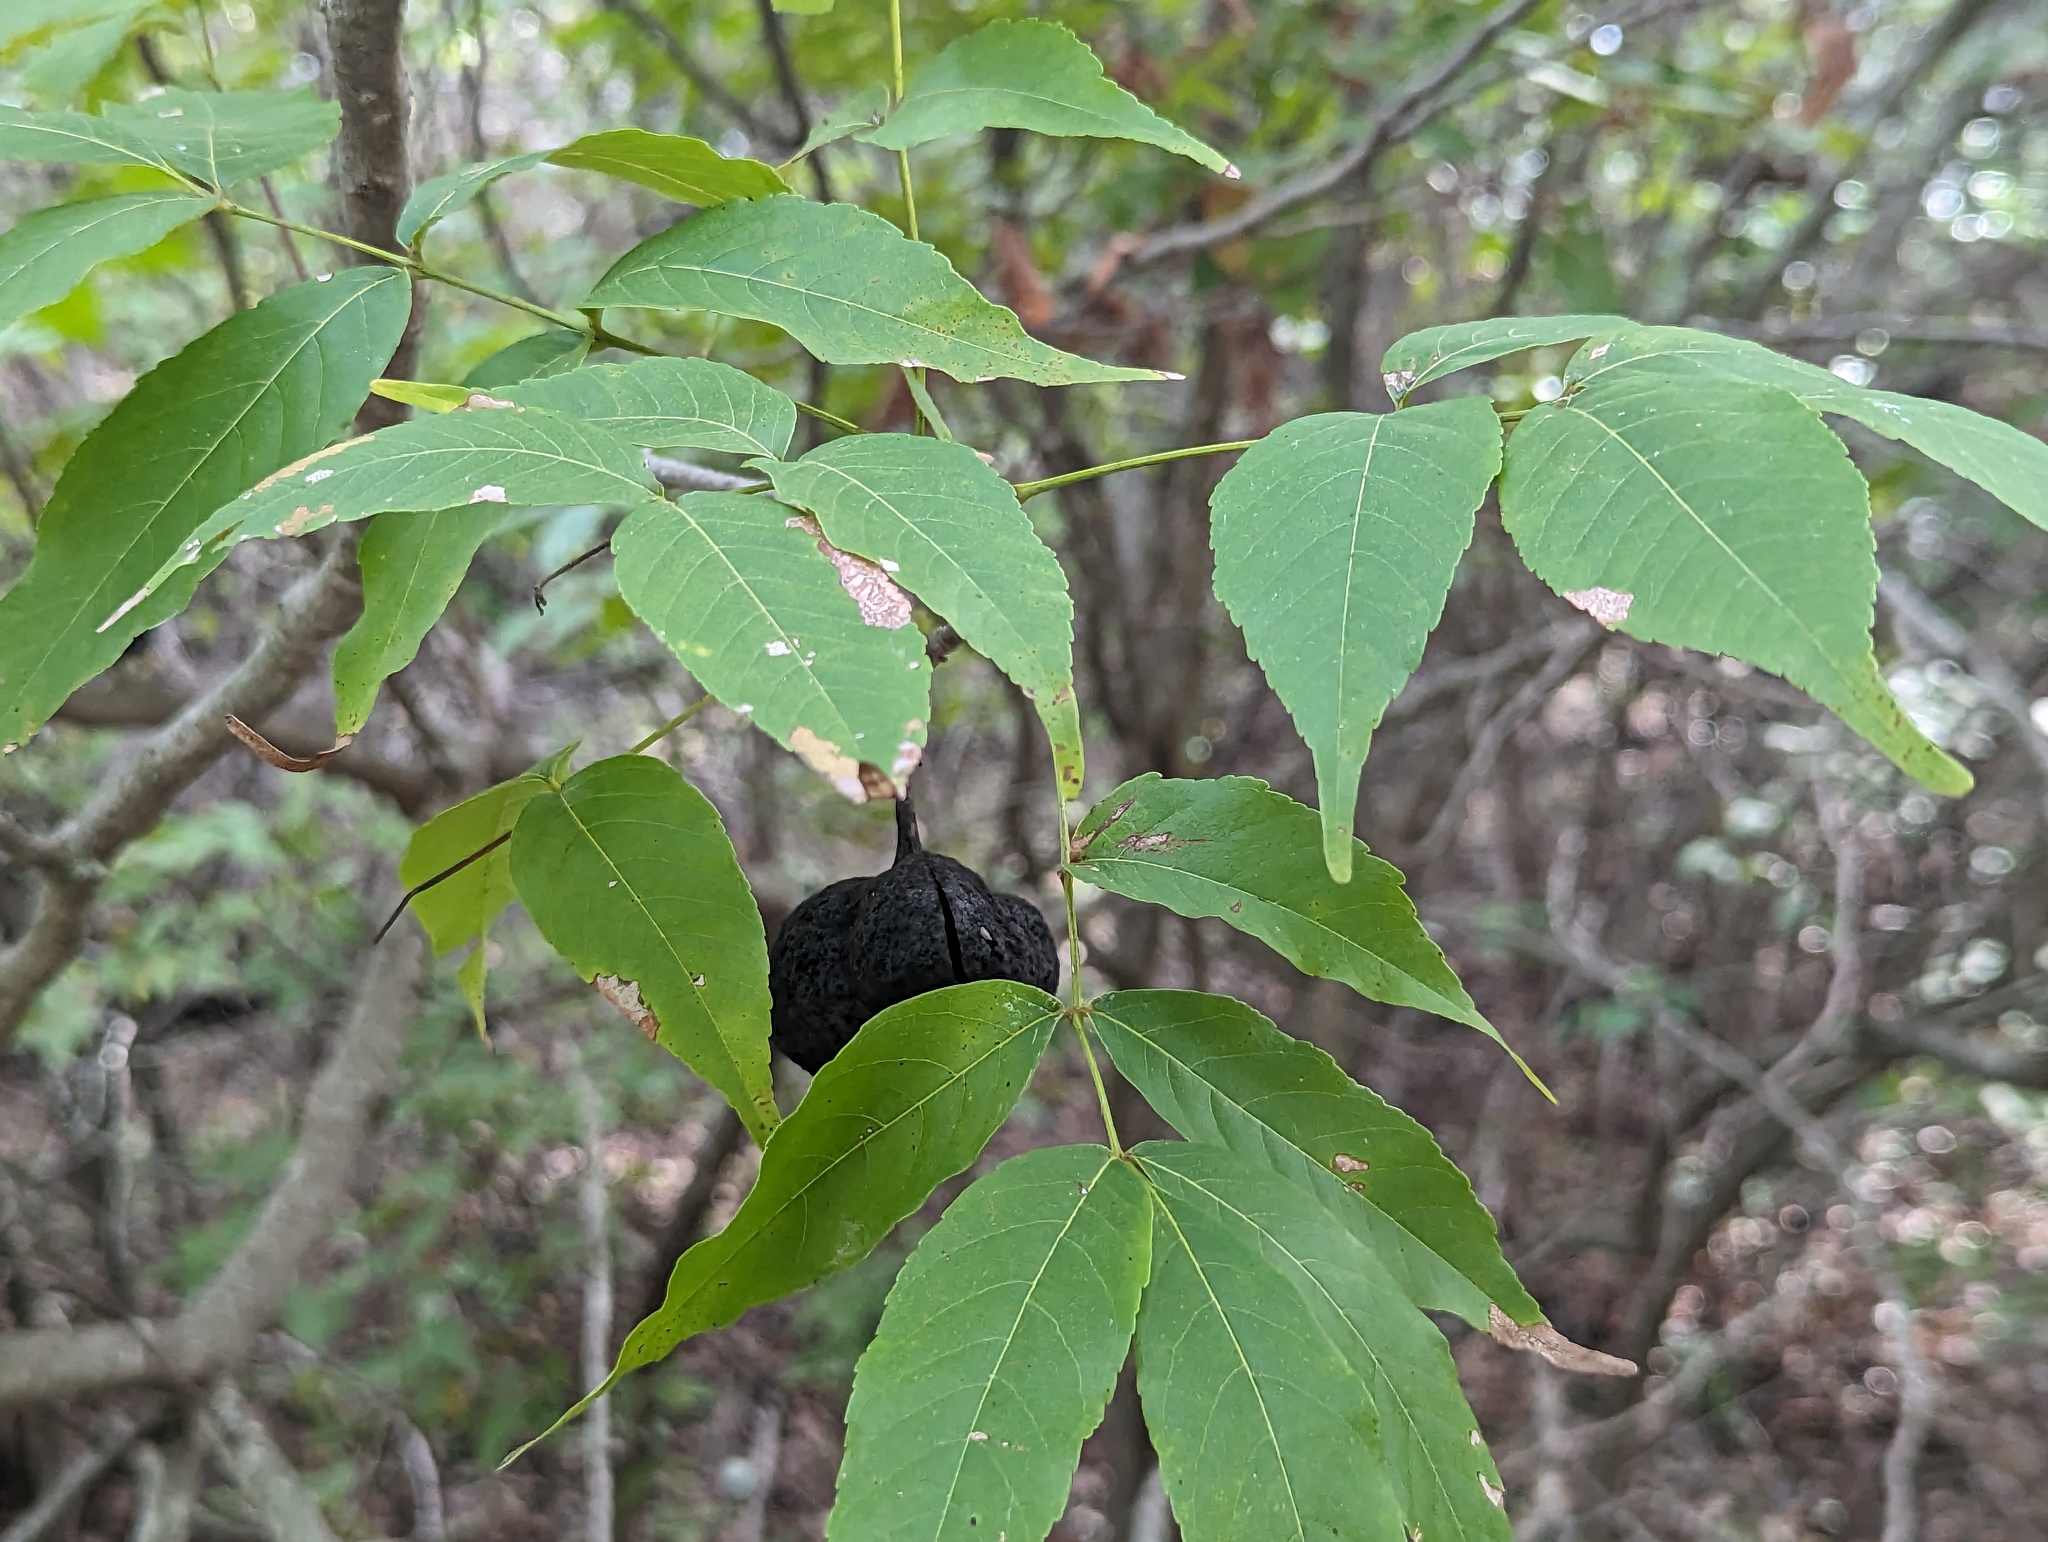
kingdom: Plantae
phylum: Tracheophyta
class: Magnoliopsida
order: Sapindales
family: Sapindaceae
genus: Ungnadia
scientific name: Ungnadia speciosa
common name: Texas-buckeye
